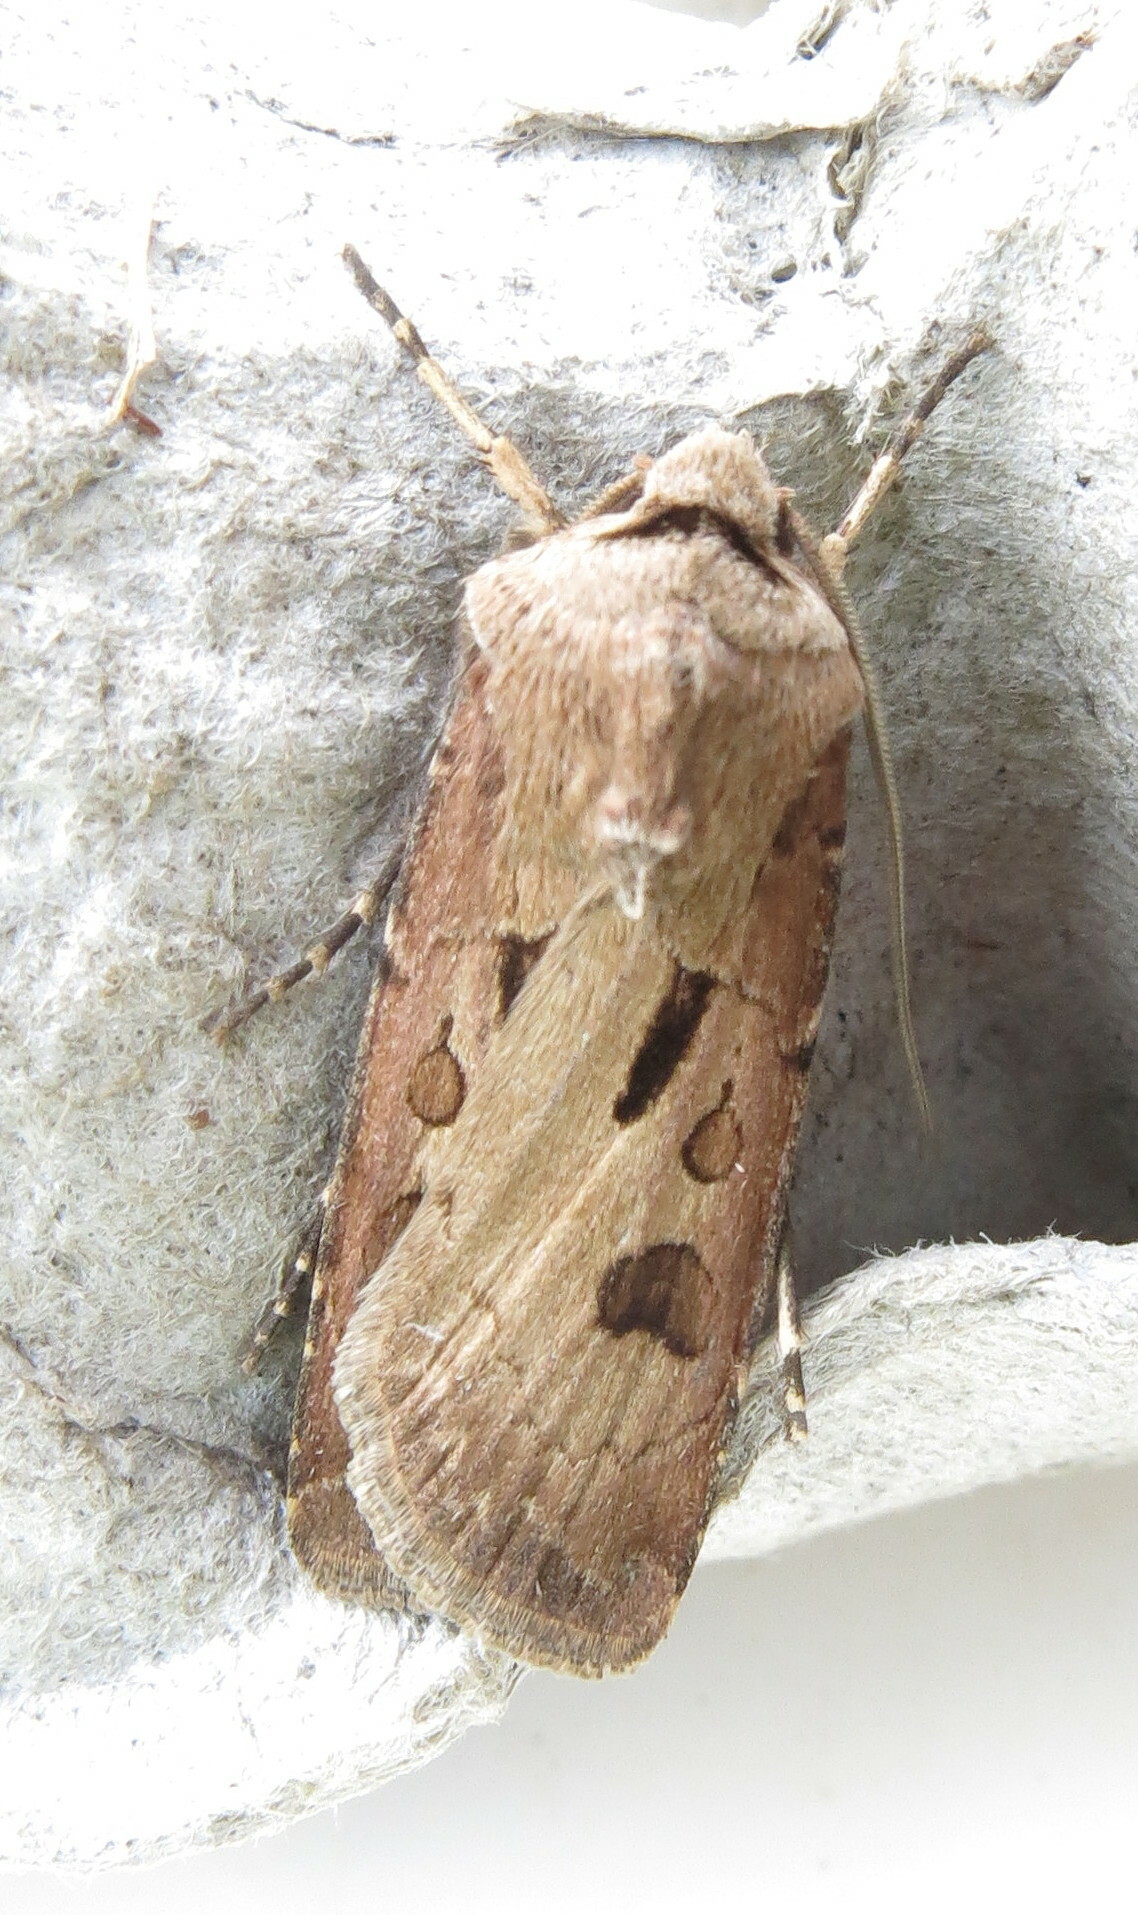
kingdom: Animalia
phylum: Arthropoda
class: Insecta
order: Lepidoptera
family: Noctuidae
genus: Agrotis
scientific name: Agrotis exclamationis
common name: Heart and dart
